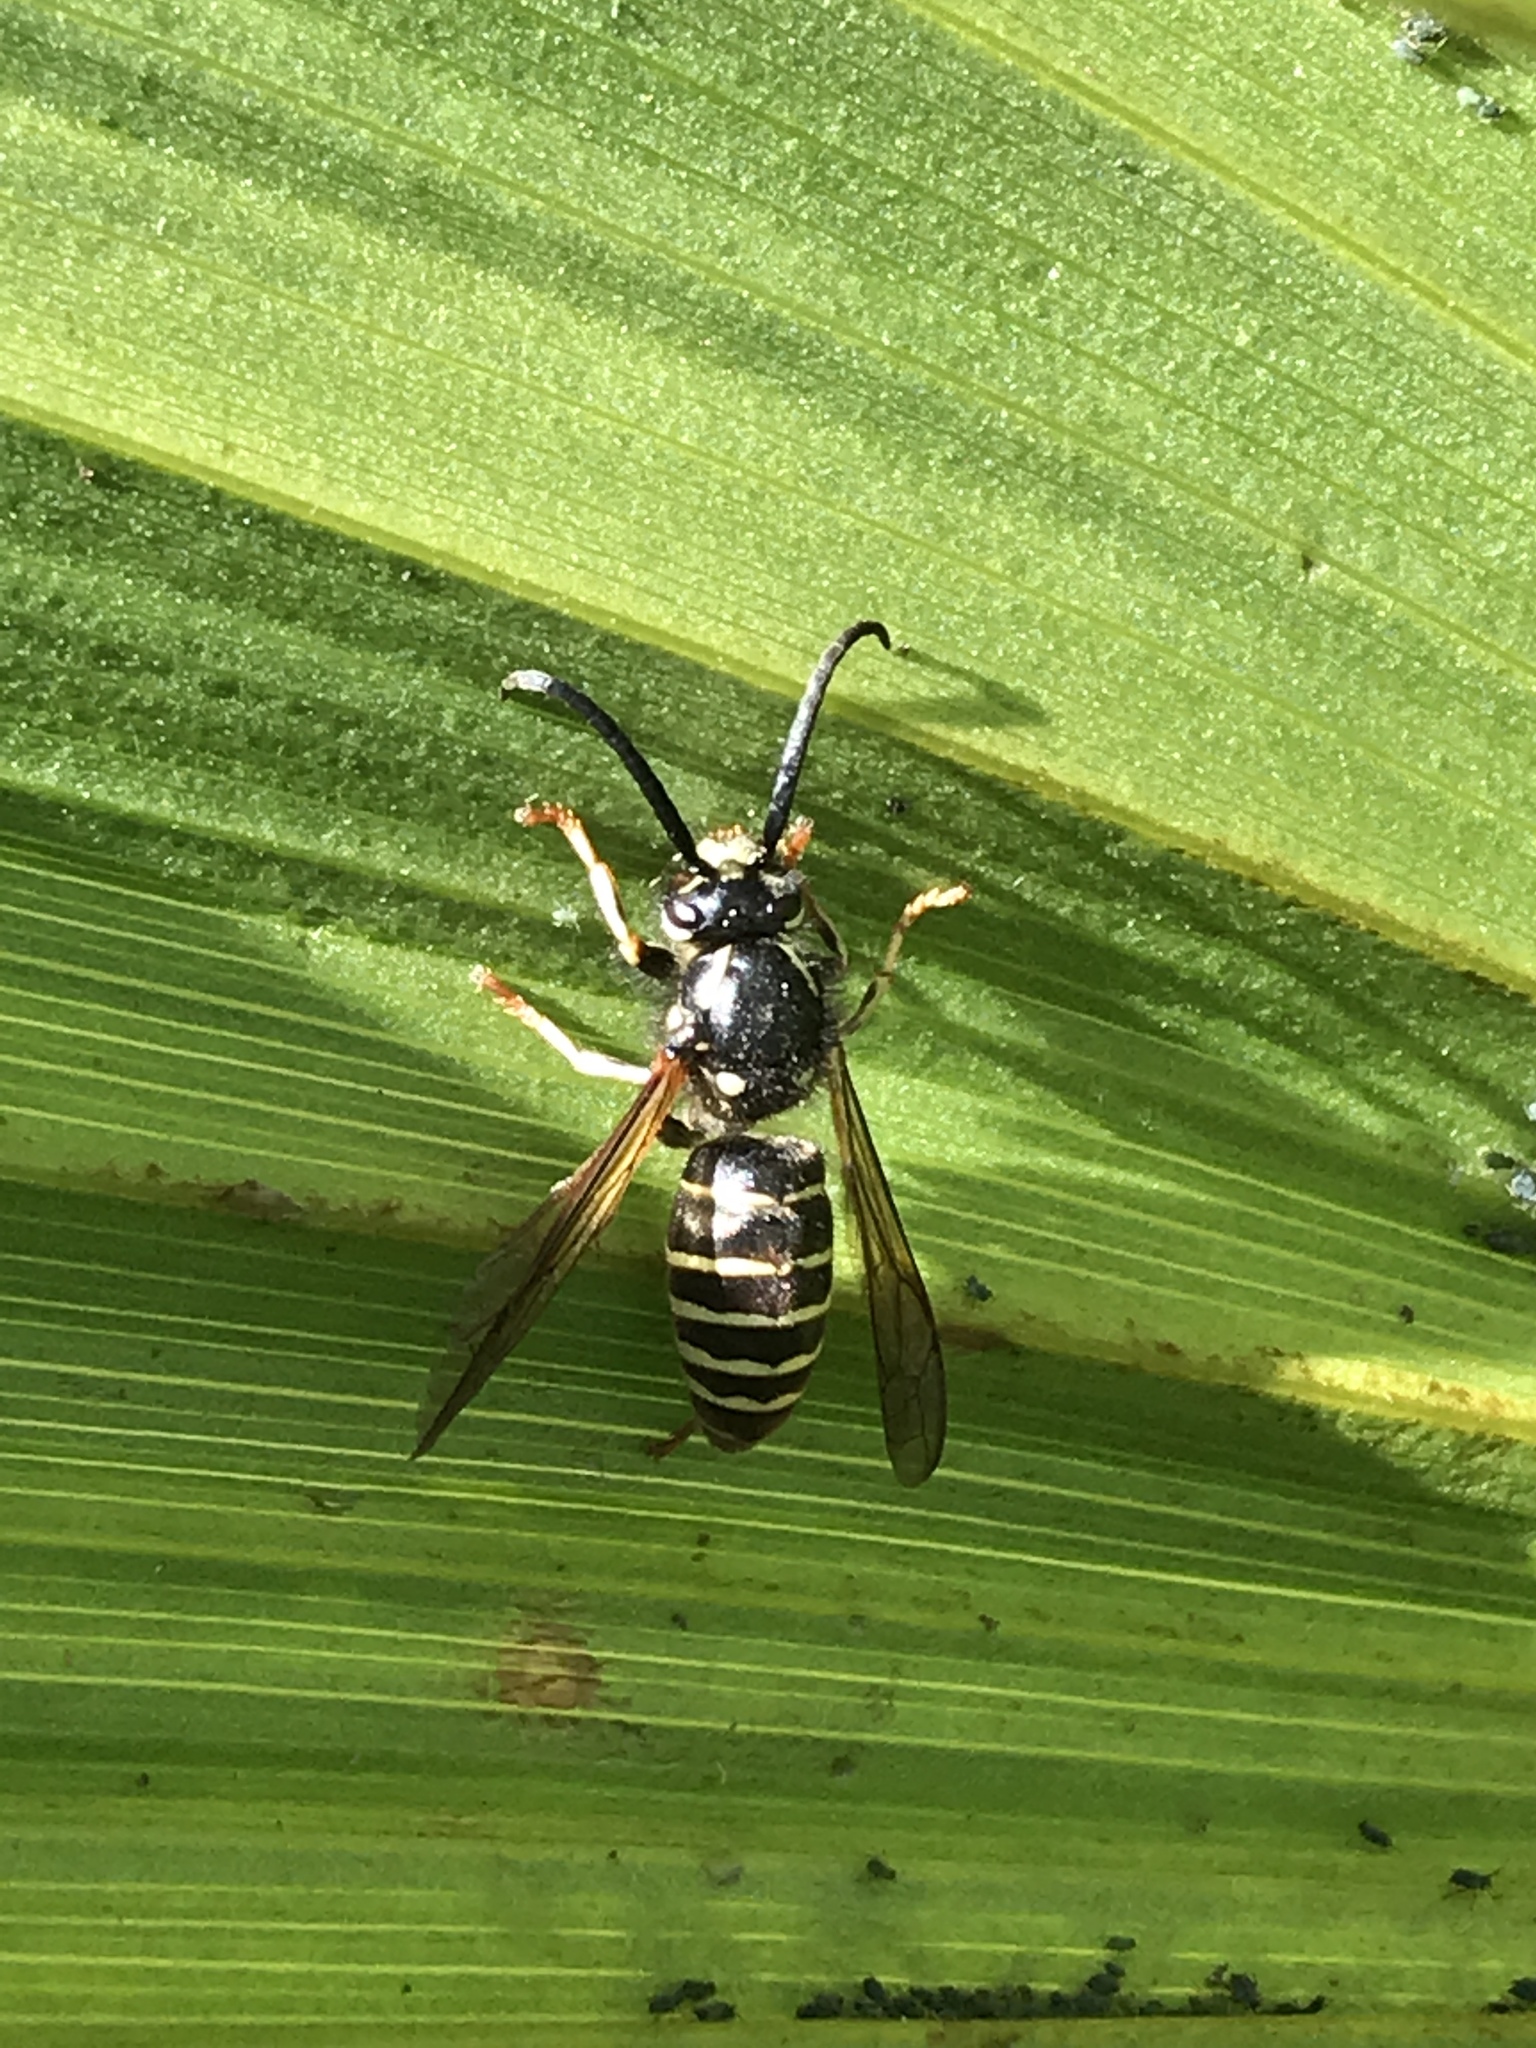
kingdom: Animalia
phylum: Arthropoda
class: Insecta
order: Hymenoptera
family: Vespidae
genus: Dolichovespula
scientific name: Dolichovespula adulterina
